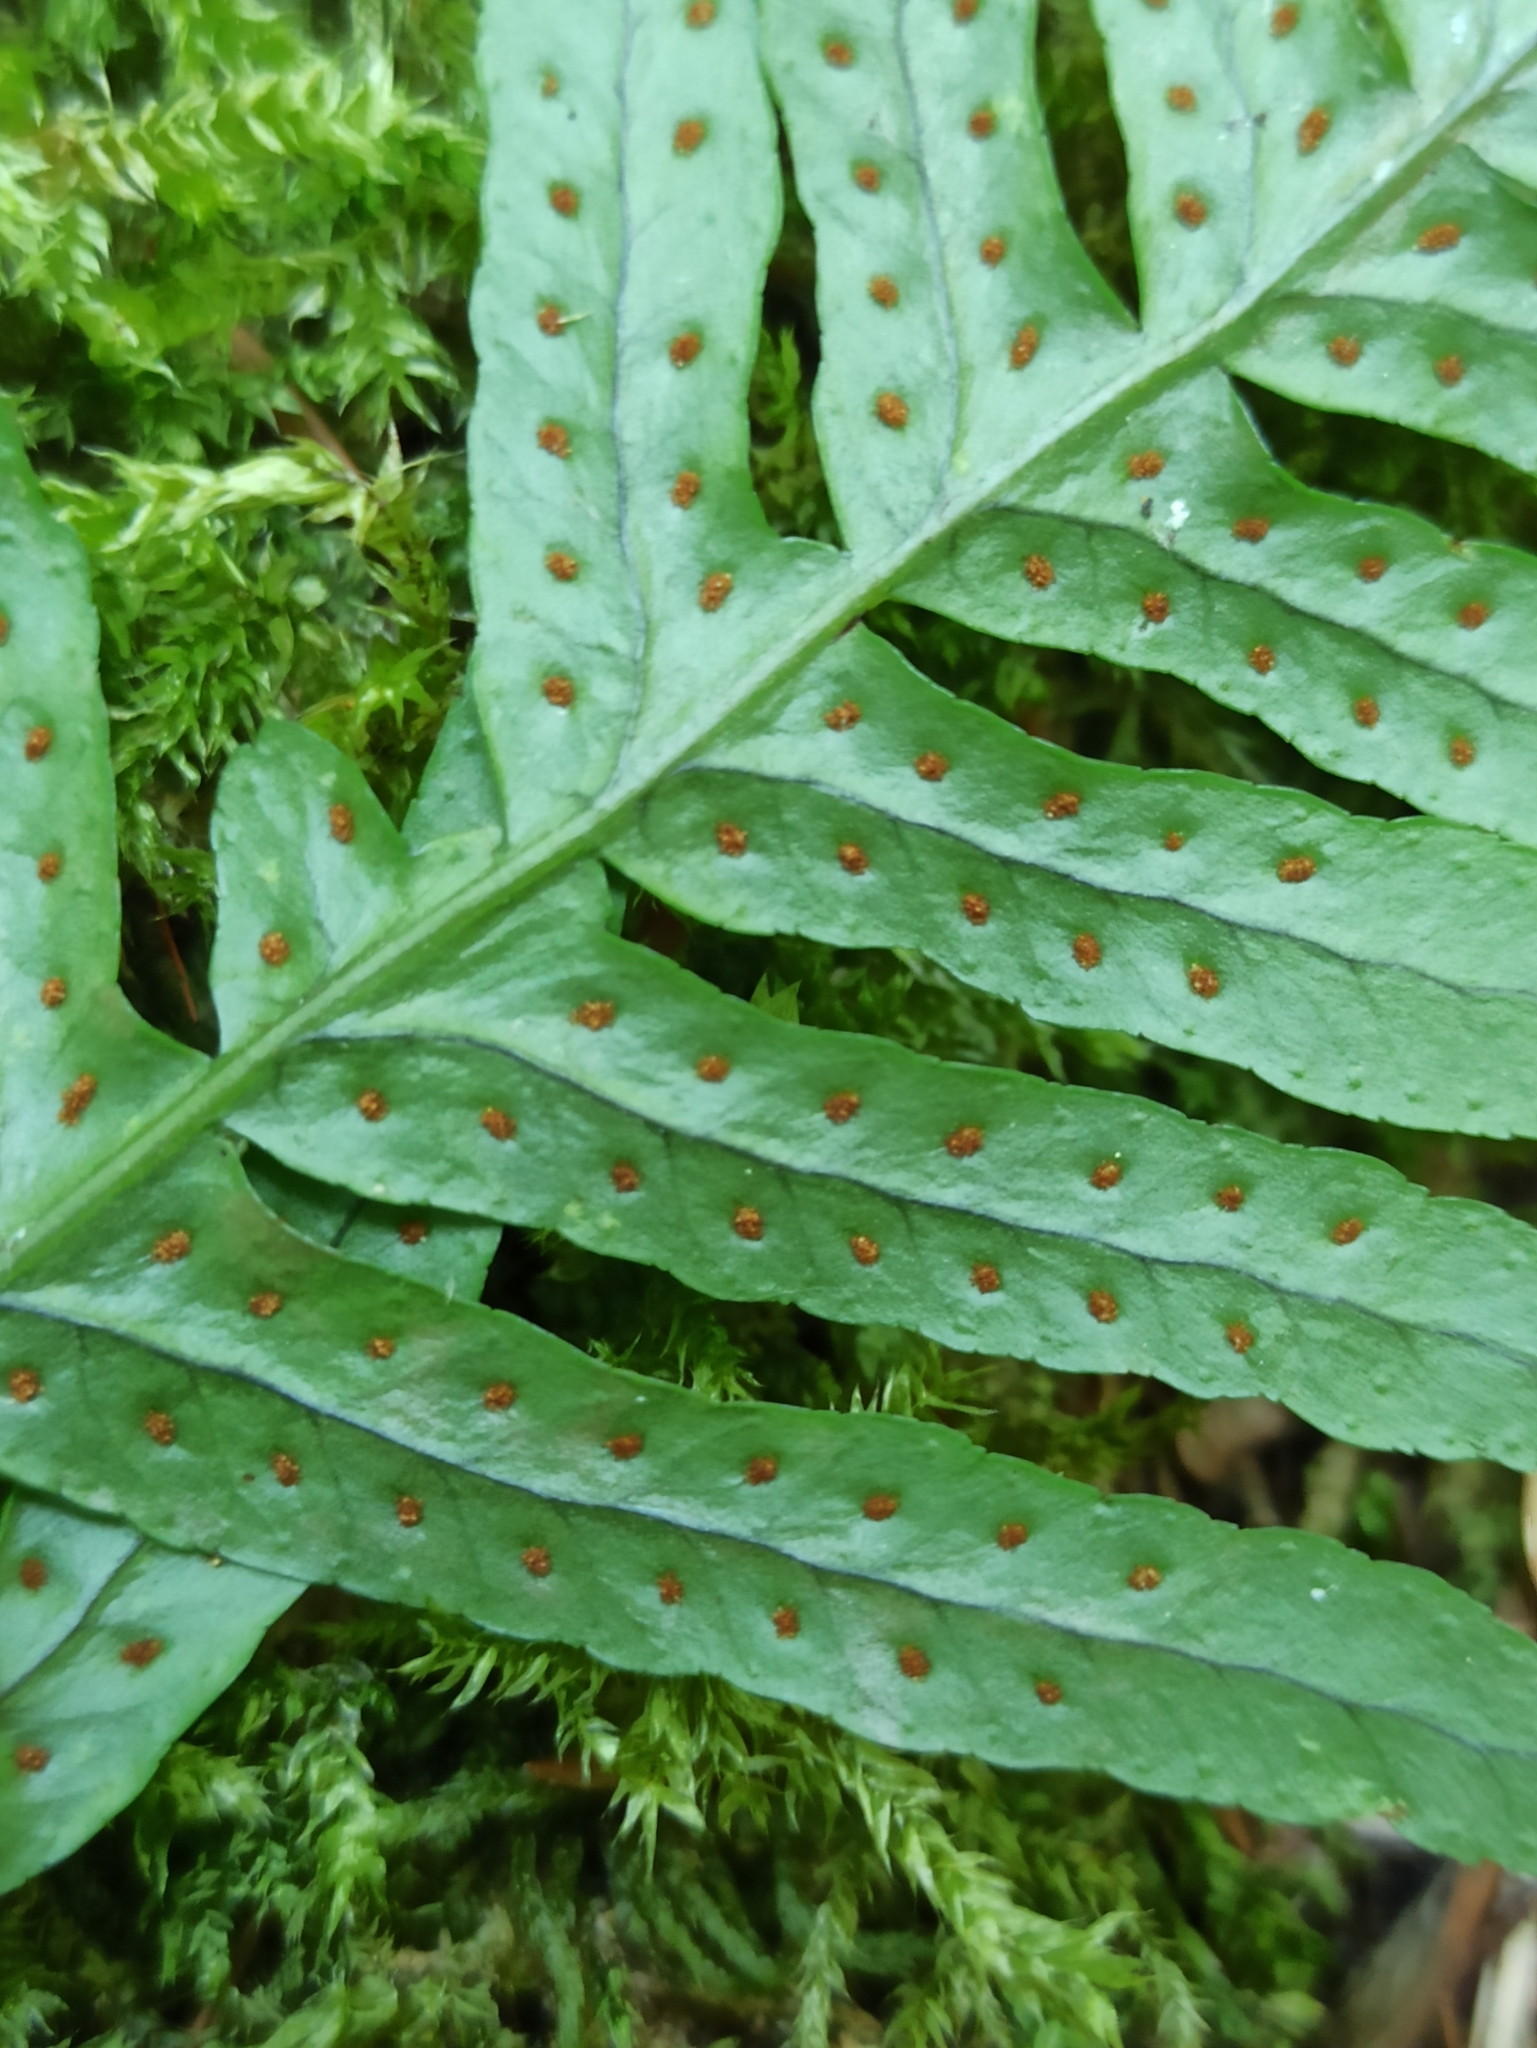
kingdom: Plantae
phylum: Tracheophyta
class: Polypodiopsida
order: Polypodiales
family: Polypodiaceae
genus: Polypodium
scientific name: Polypodium vulgare
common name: Common polypody
